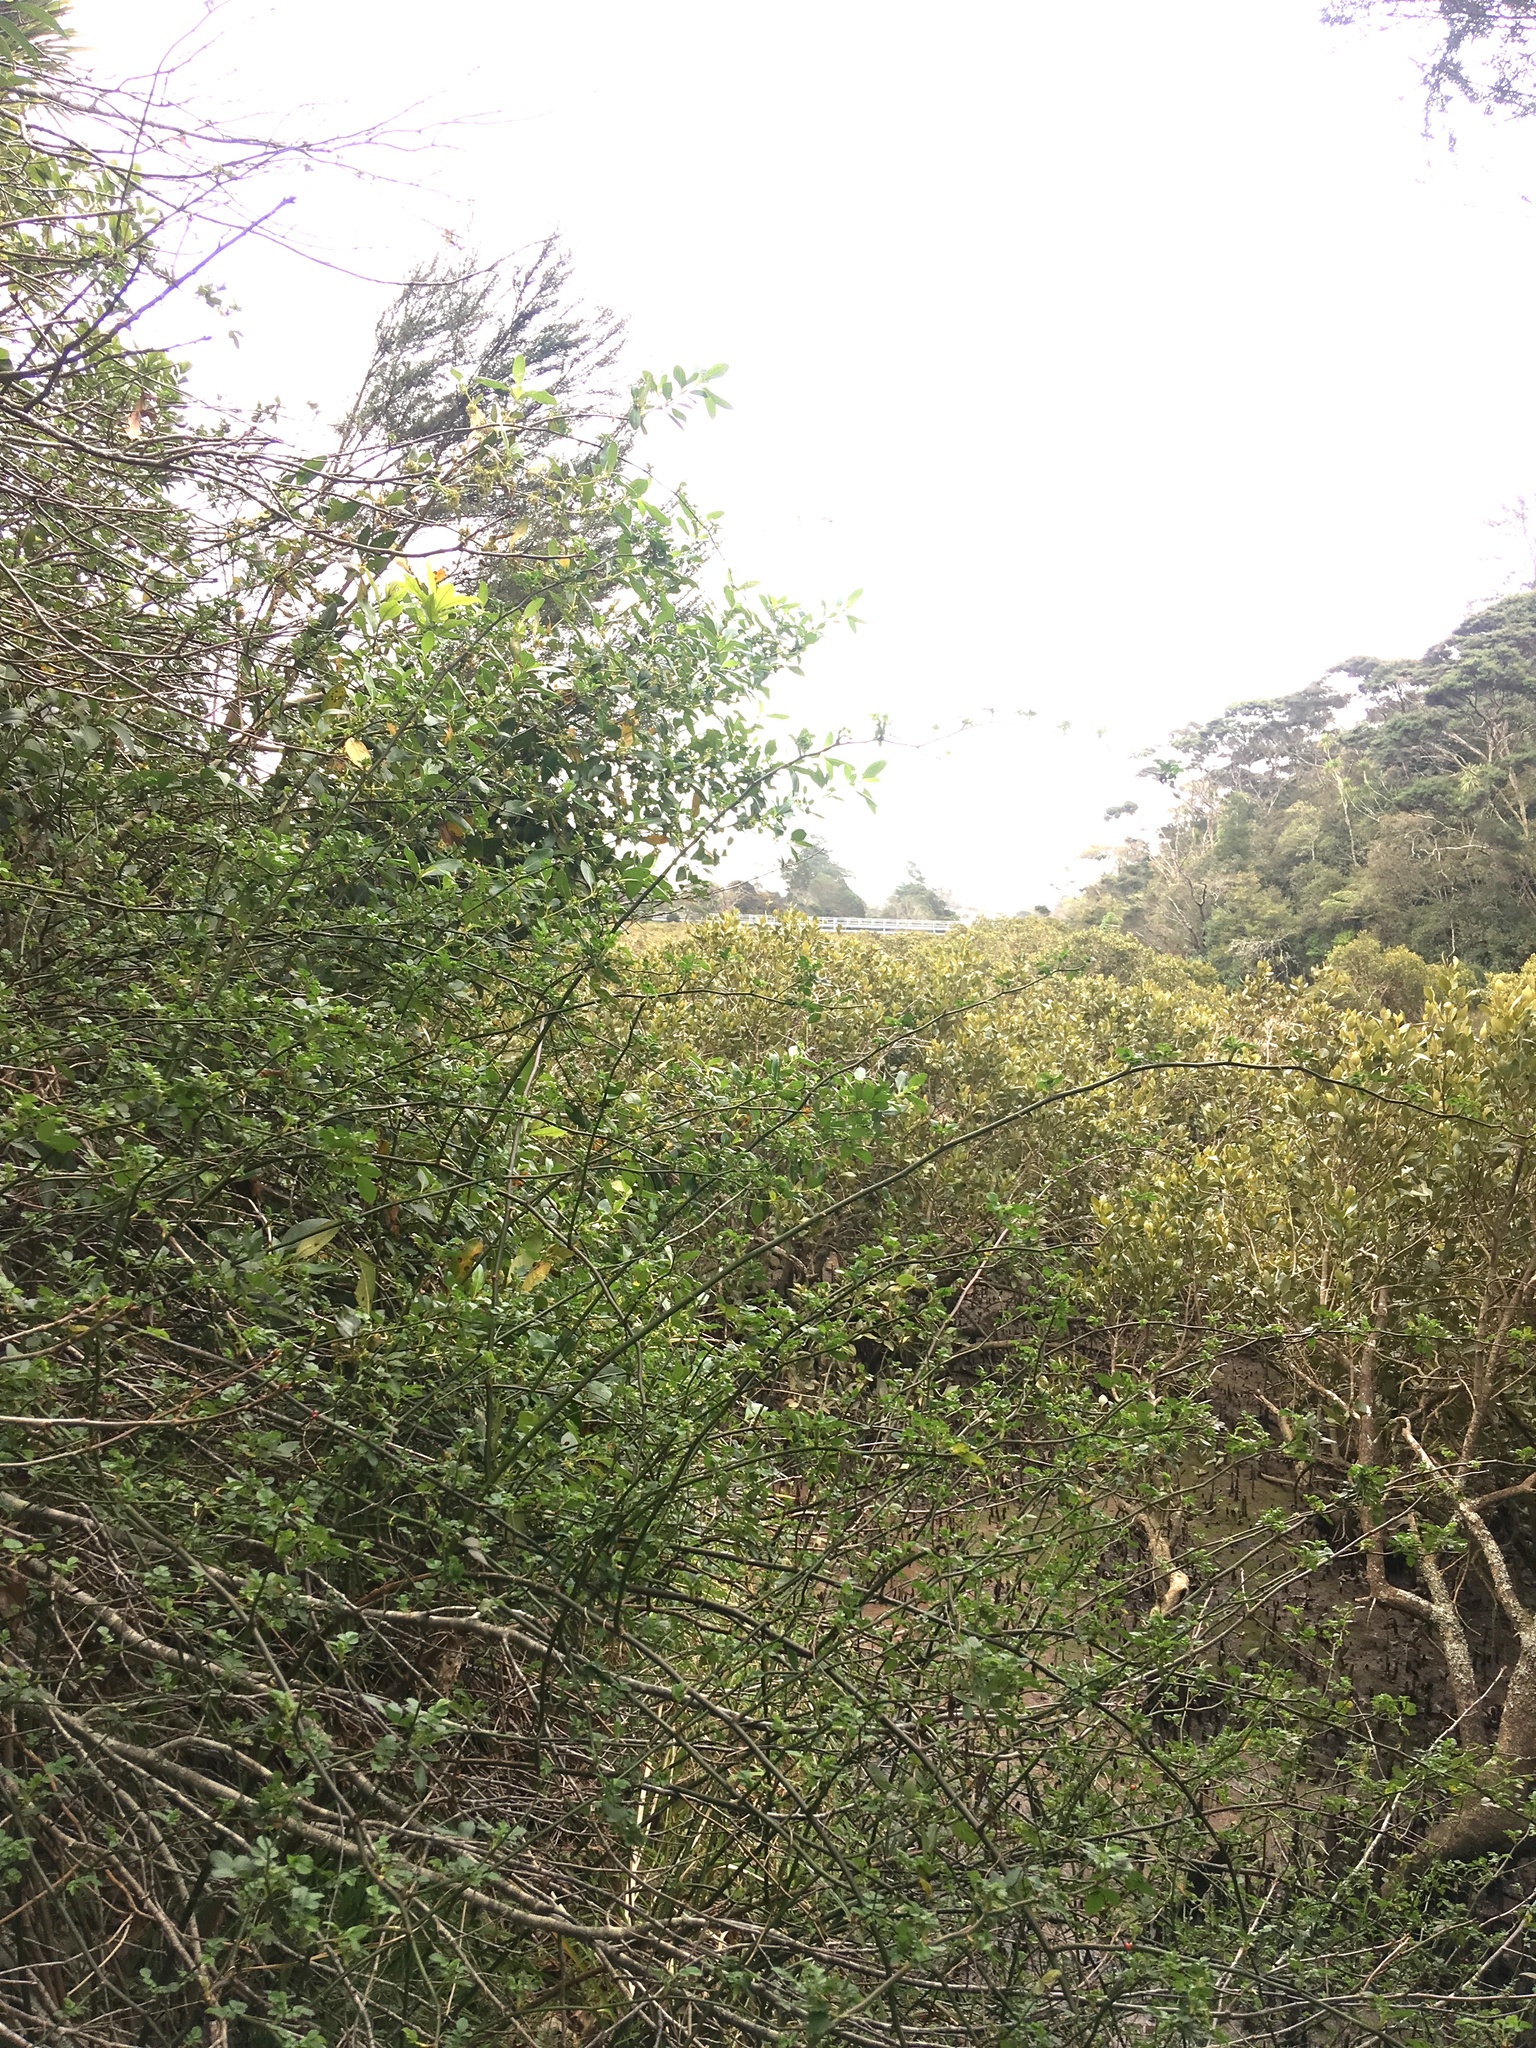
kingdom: Plantae
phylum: Tracheophyta
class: Magnoliopsida
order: Lamiales
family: Acanthaceae
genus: Avicennia
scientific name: Avicennia marina
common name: Gray mangrove
